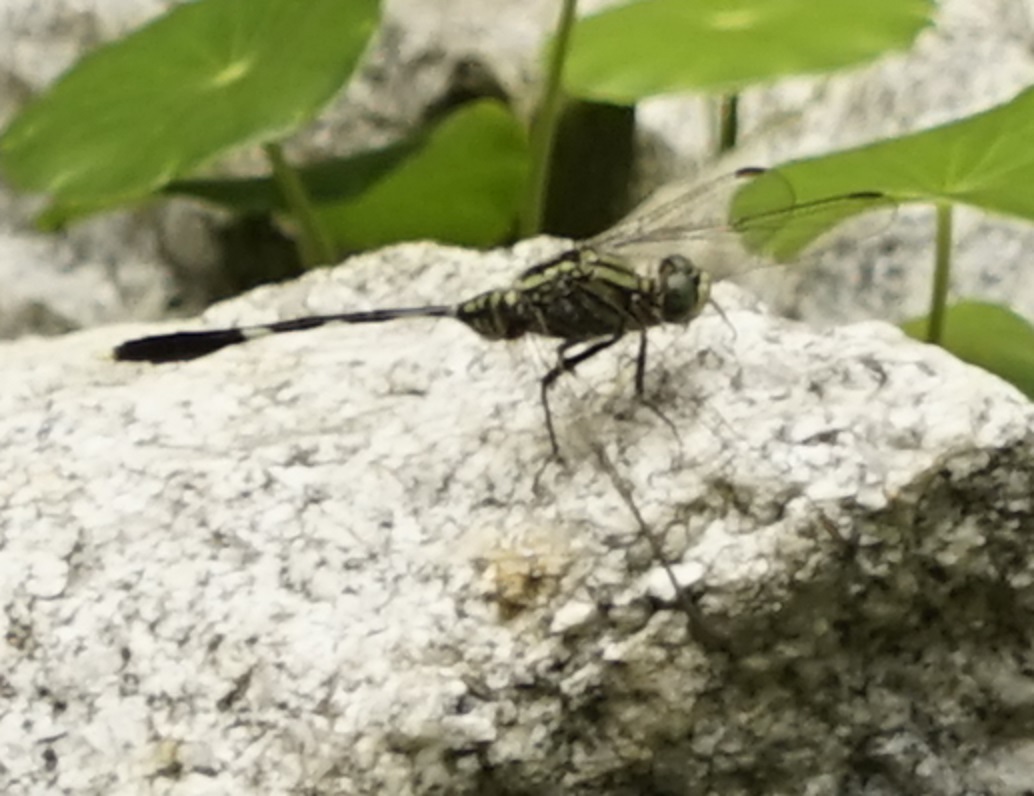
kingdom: Animalia
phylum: Arthropoda
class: Insecta
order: Odonata
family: Libellulidae
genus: Orthetrum
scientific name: Orthetrum sabina
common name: Slender skimmer
